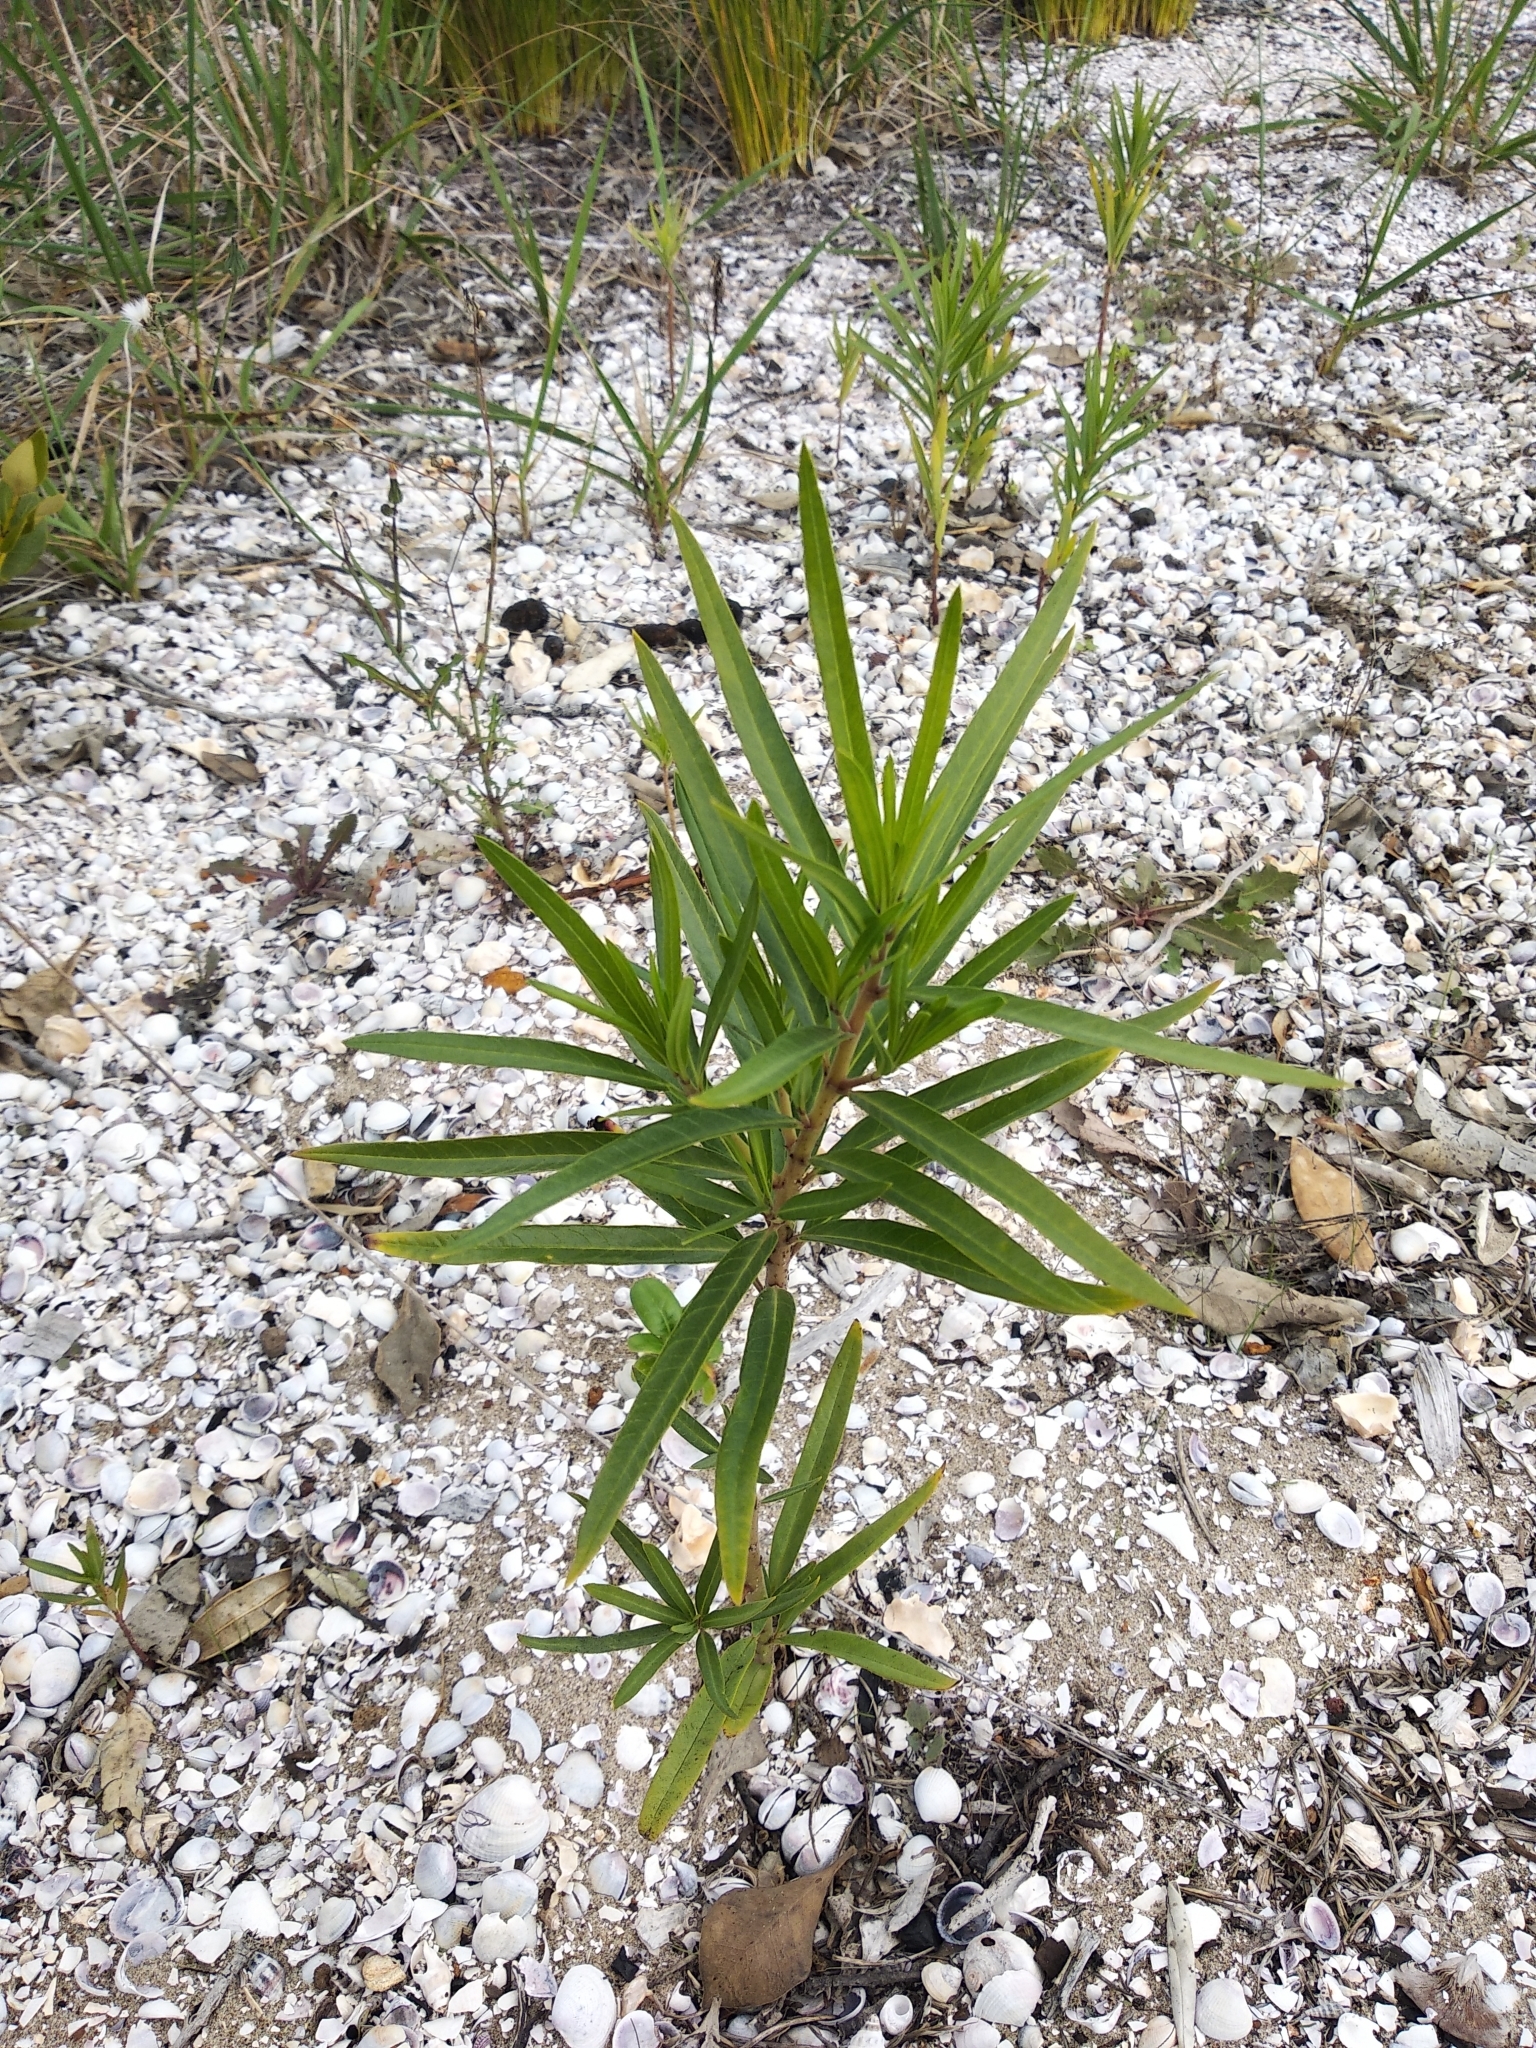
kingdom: Plantae
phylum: Tracheophyta
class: Magnoliopsida
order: Gentianales
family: Apocynaceae
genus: Gomphocarpus
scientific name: Gomphocarpus physocarpus
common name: Balloon cotton bush
